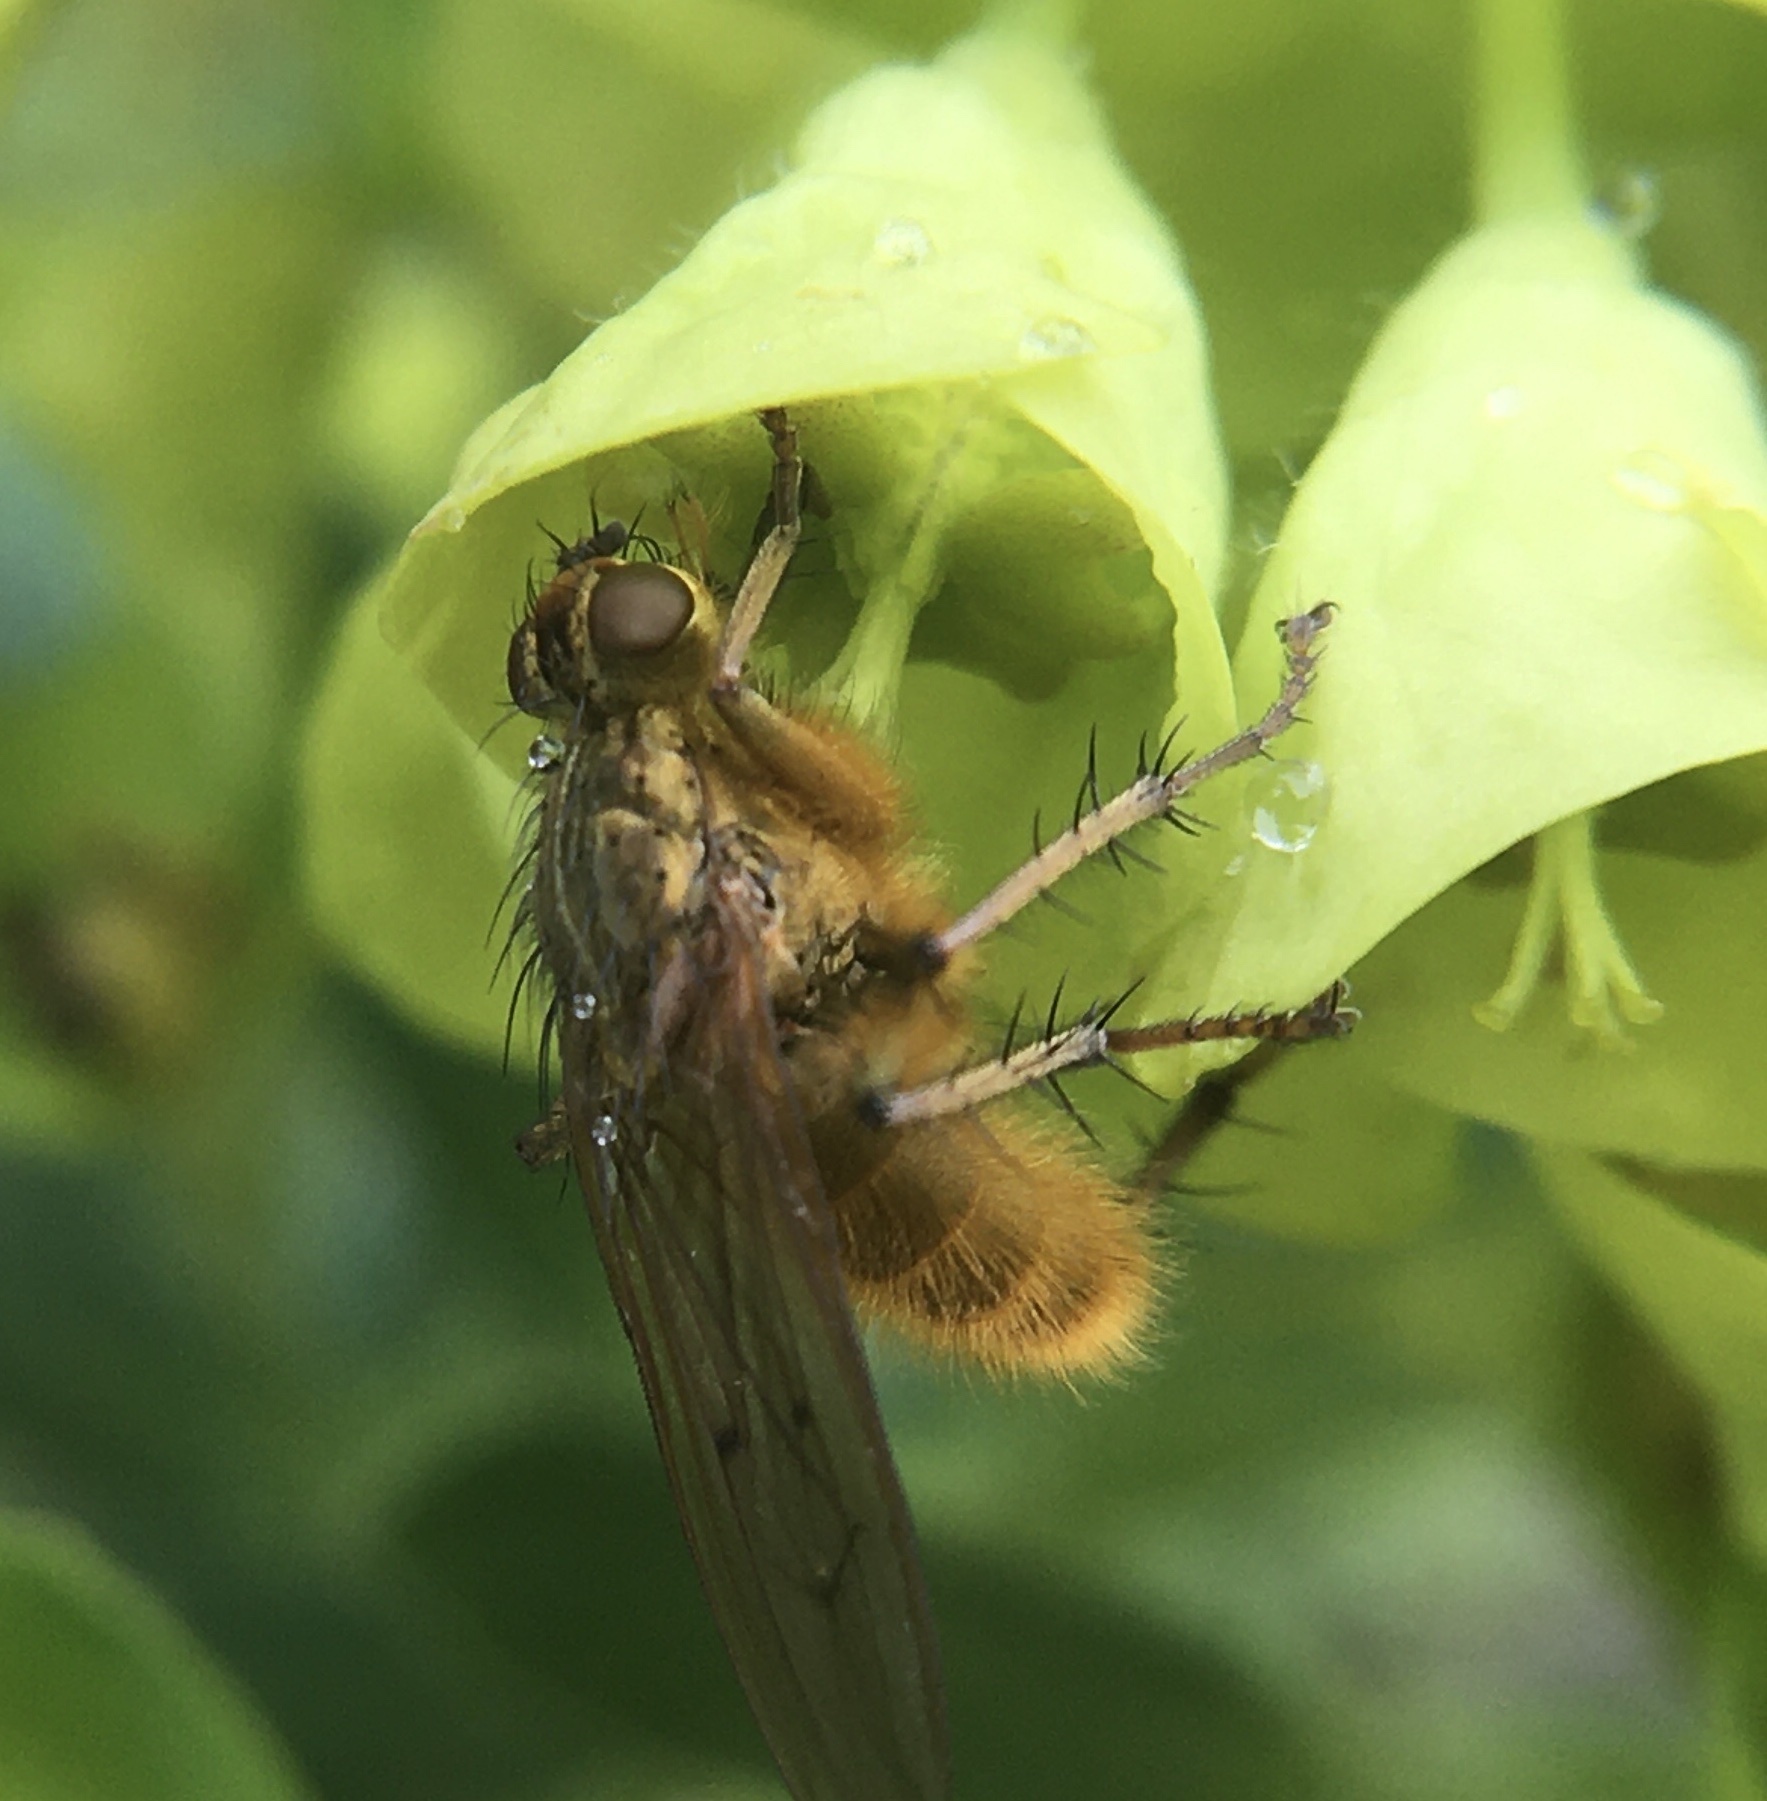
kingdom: Animalia
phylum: Arthropoda
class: Insecta
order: Diptera
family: Scathophagidae
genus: Scathophaga
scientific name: Scathophaga stercoraria
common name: Yellow dung fly
